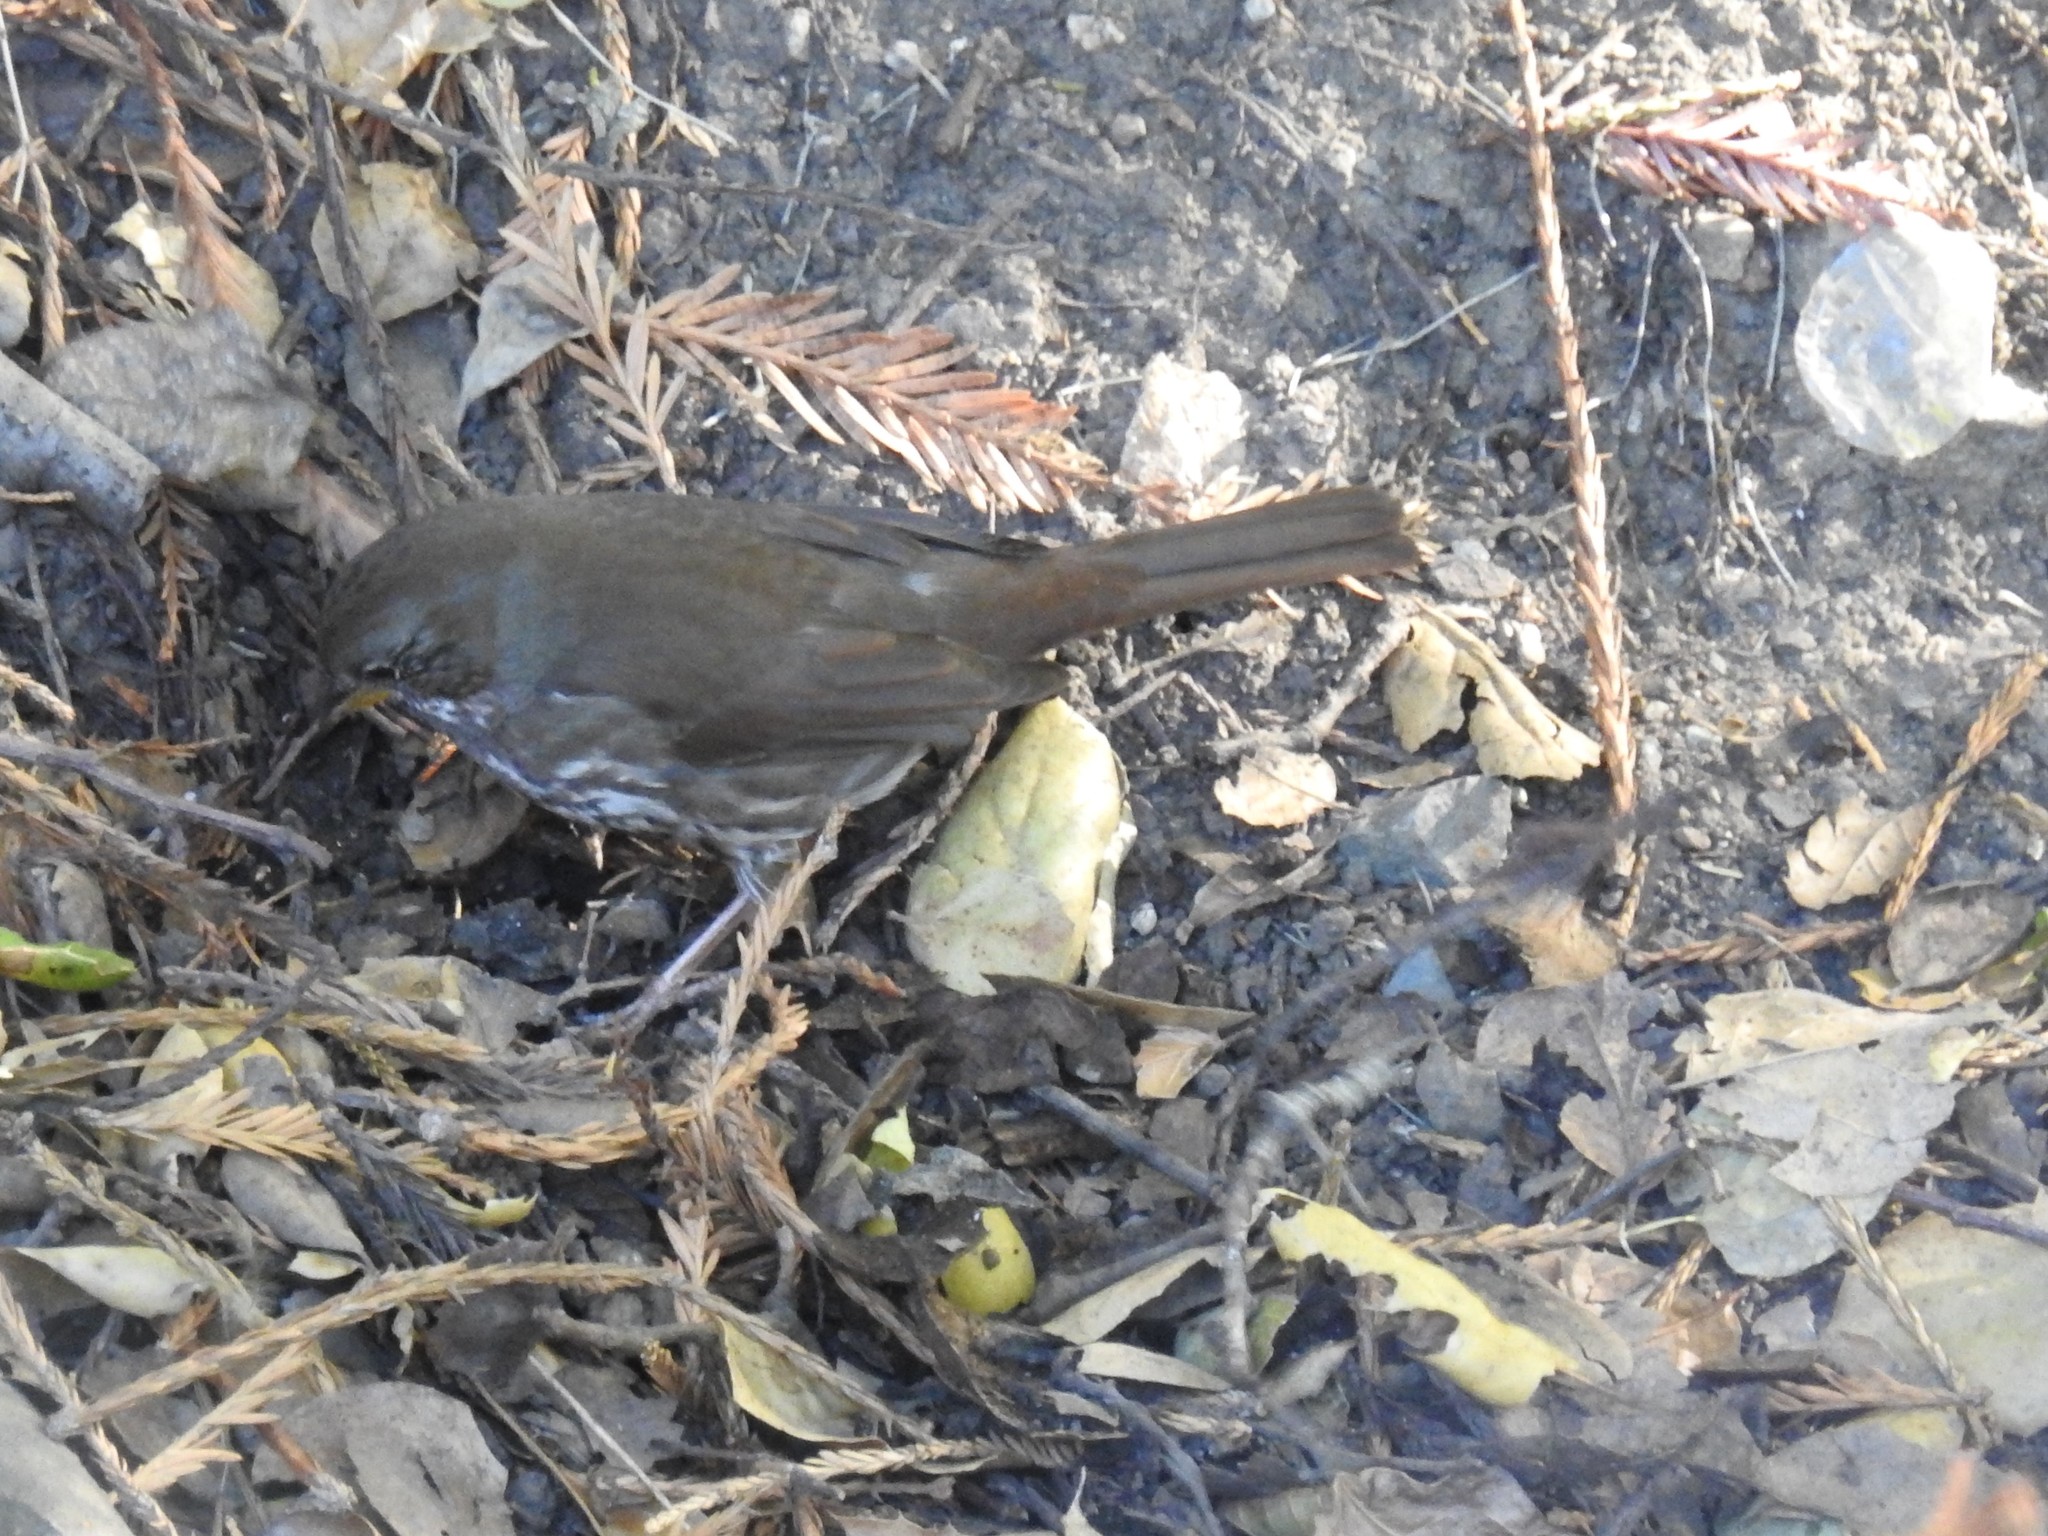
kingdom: Animalia
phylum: Chordata
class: Aves
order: Passeriformes
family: Passerellidae
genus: Passerella
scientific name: Passerella iliaca
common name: Fox sparrow
